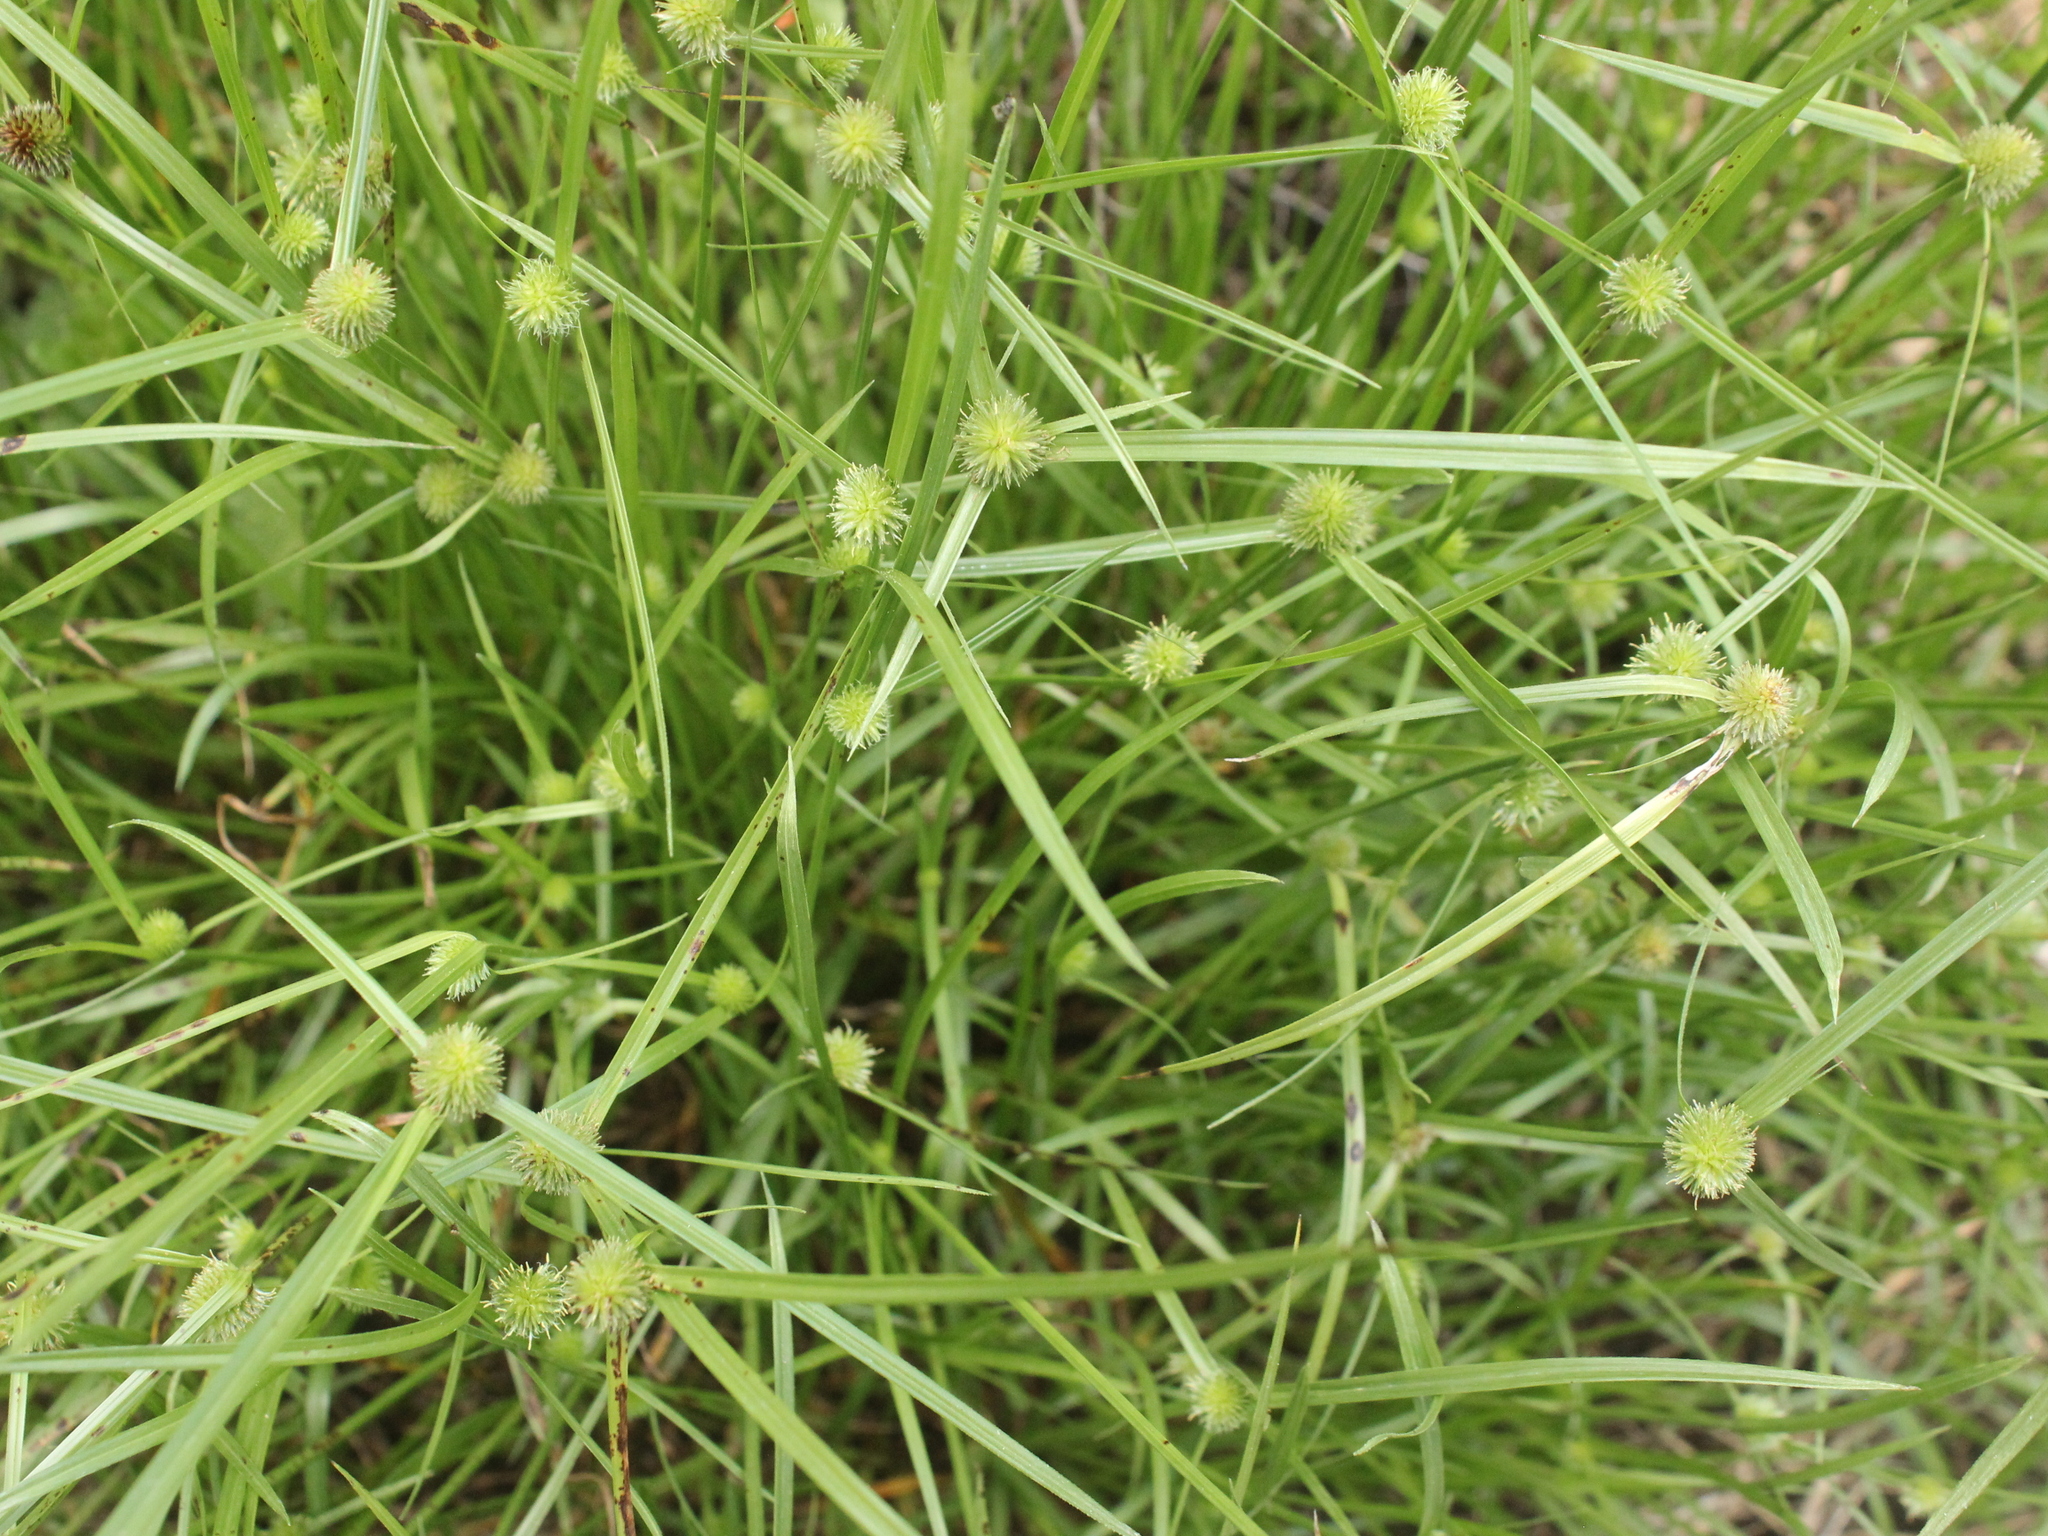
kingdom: Plantae
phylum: Tracheophyta
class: Liliopsida
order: Poales
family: Cyperaceae
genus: Cyperus
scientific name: Cyperus brevifolius
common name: Globe kyllinga
